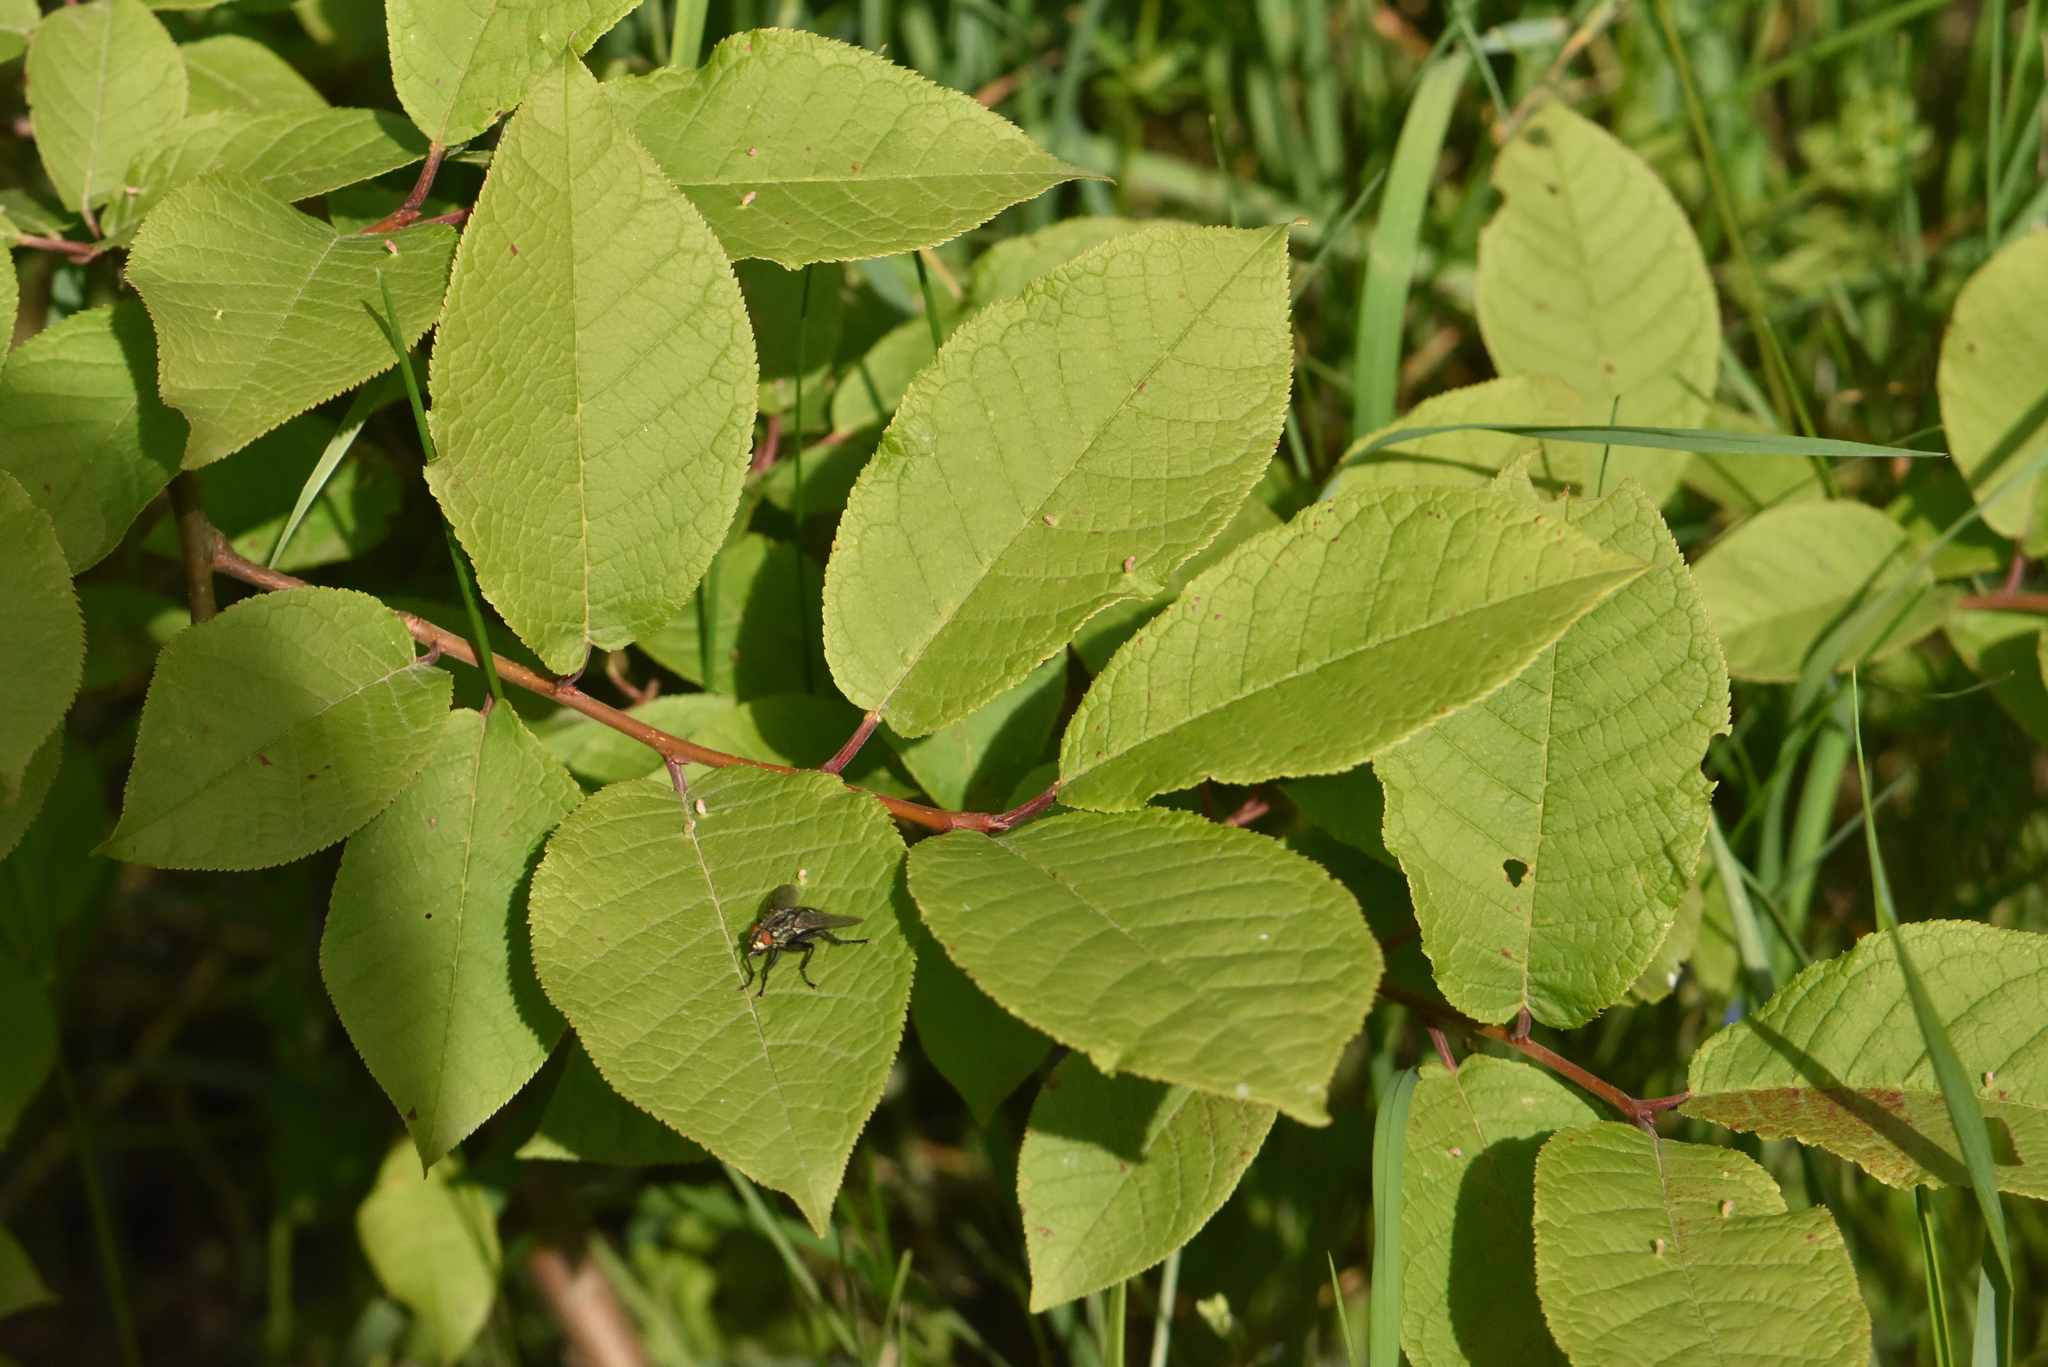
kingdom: Plantae
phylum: Tracheophyta
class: Magnoliopsida
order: Rosales
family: Rosaceae
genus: Prunus
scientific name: Prunus padus
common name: Bird cherry
